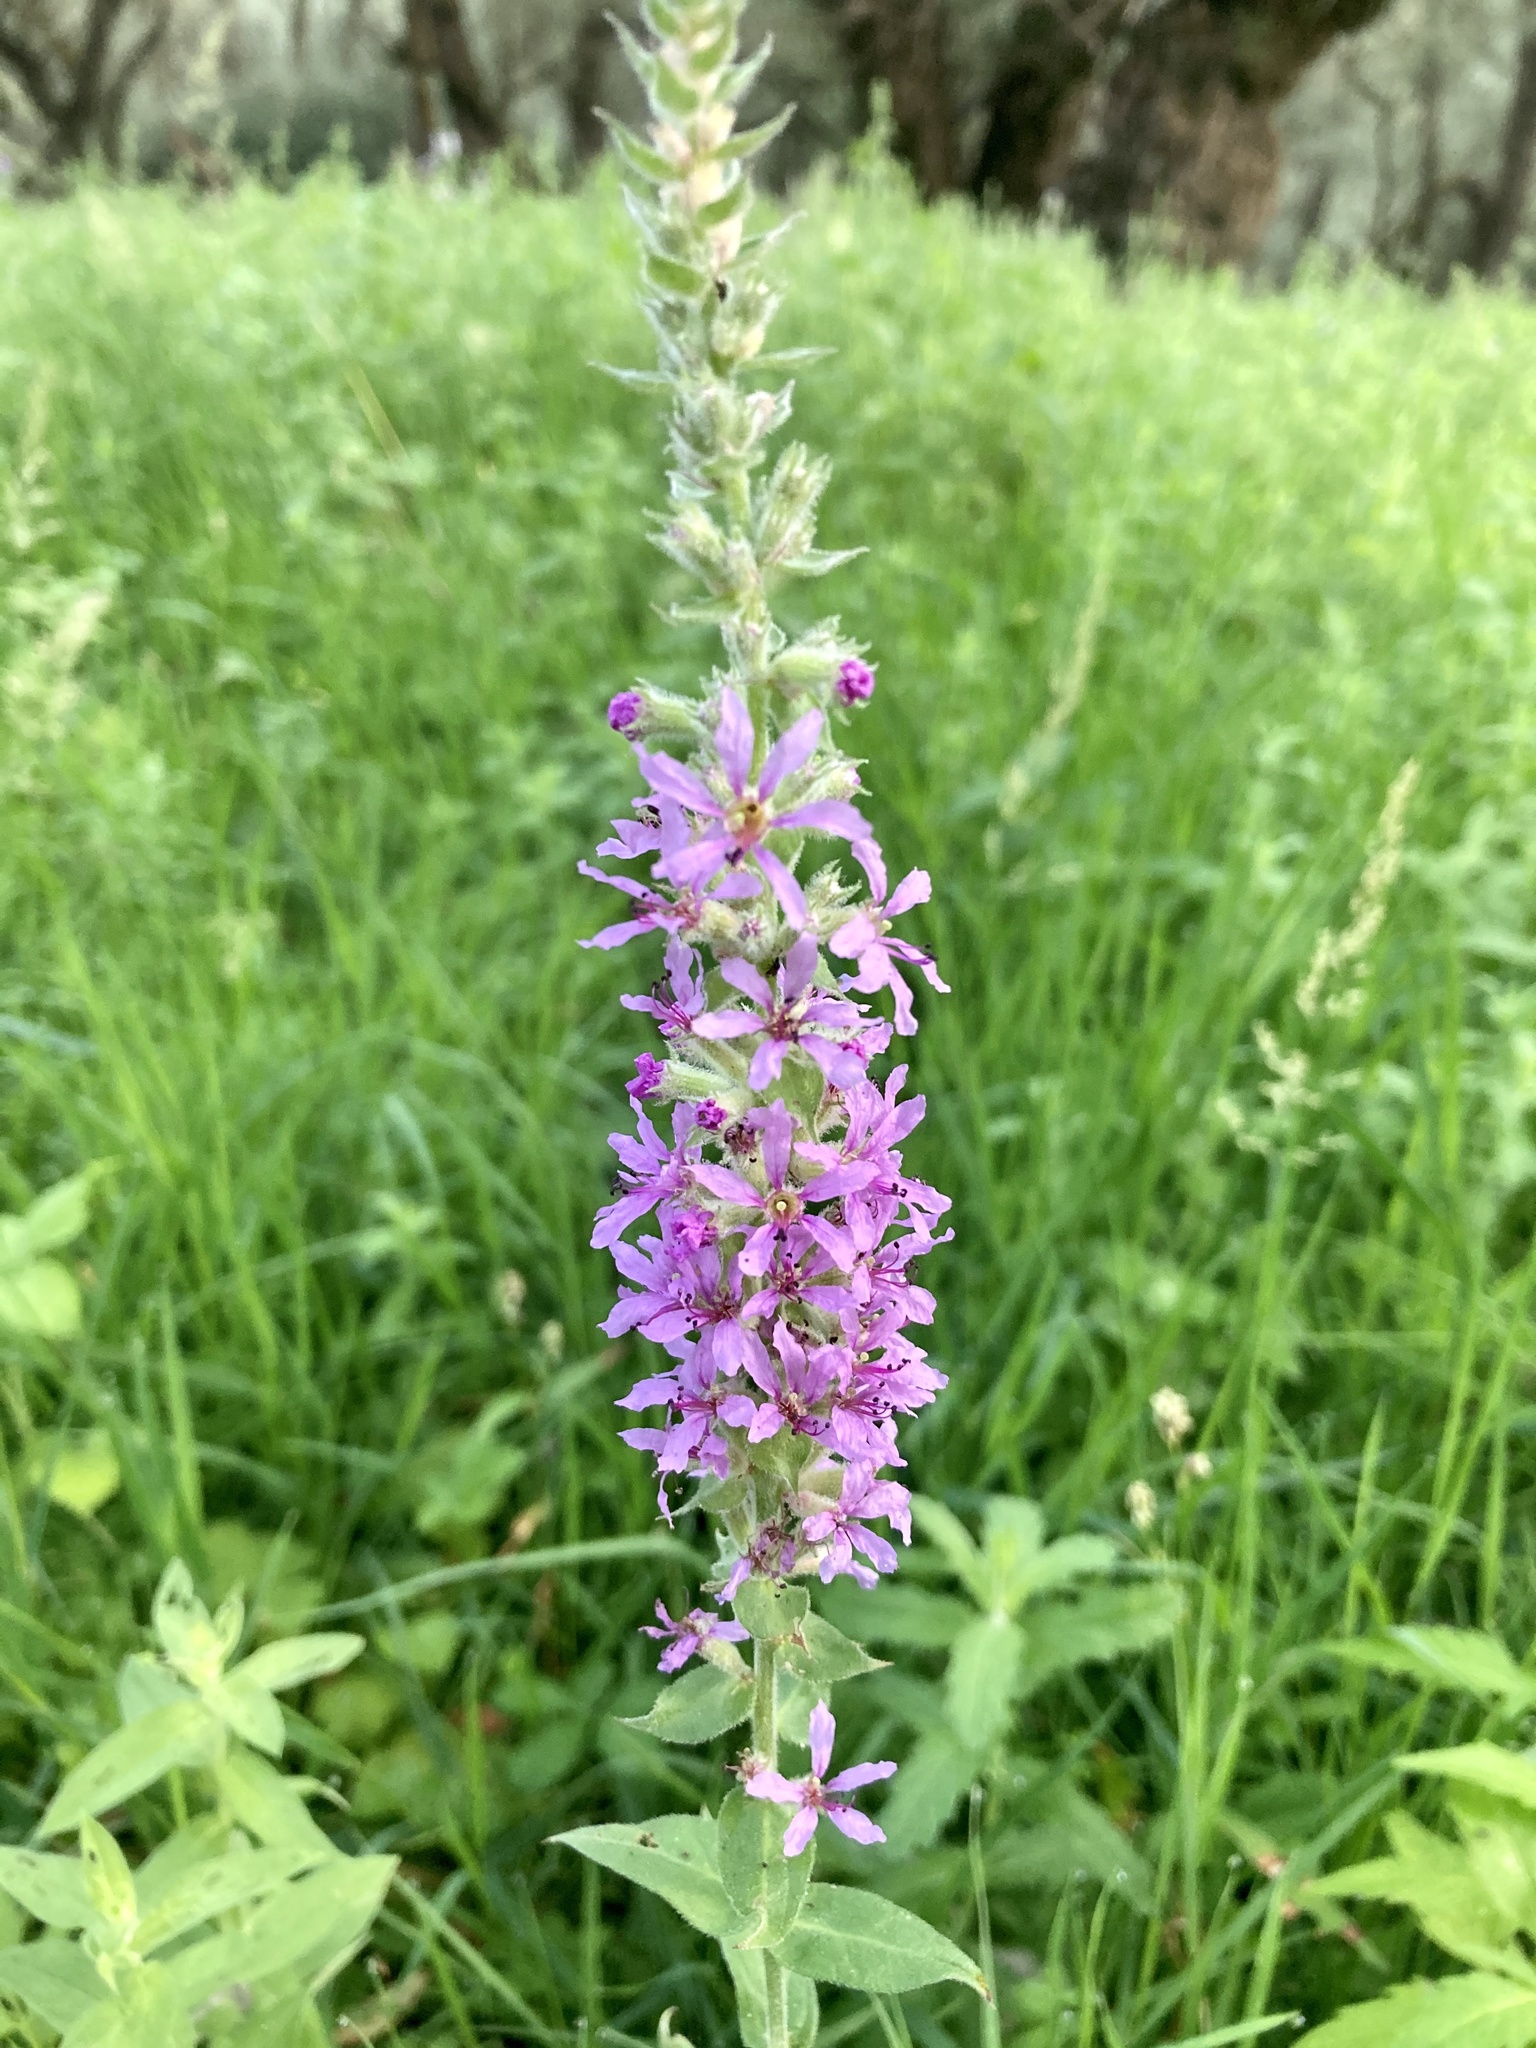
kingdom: Plantae
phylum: Tracheophyta
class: Magnoliopsida
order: Myrtales
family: Lythraceae
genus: Lythrum
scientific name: Lythrum salicaria
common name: Purple loosestrife
